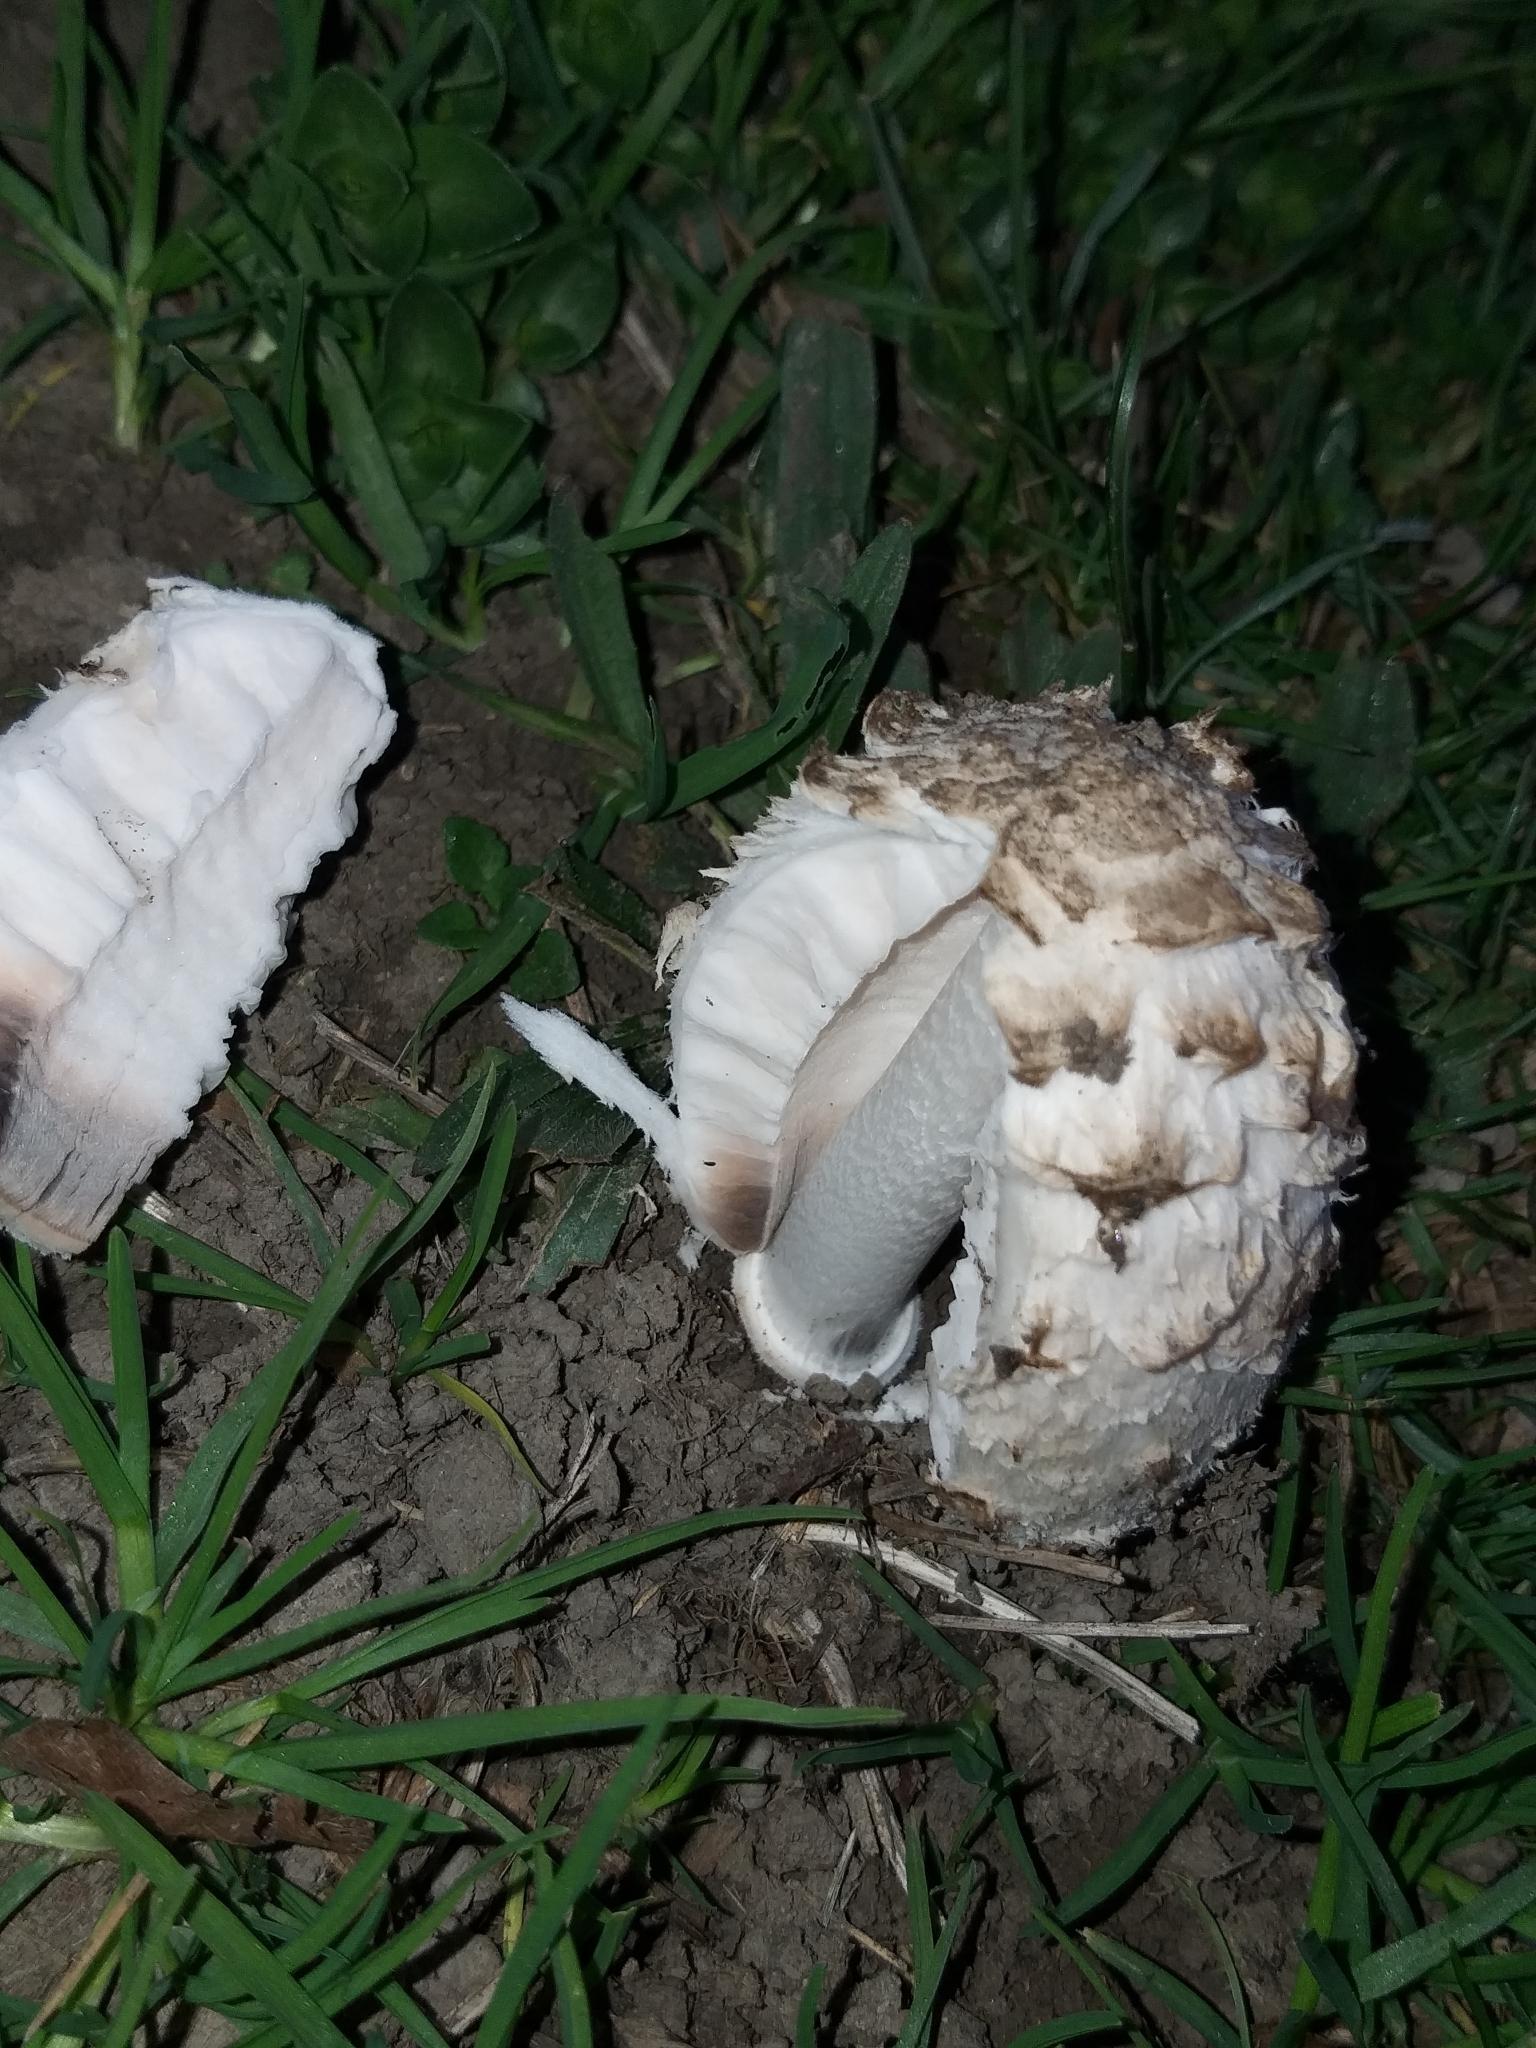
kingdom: Fungi
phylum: Basidiomycota
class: Agaricomycetes
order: Agaricales
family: Agaricaceae
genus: Coprinus
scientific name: Coprinus comatus
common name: Lawyer's wig
